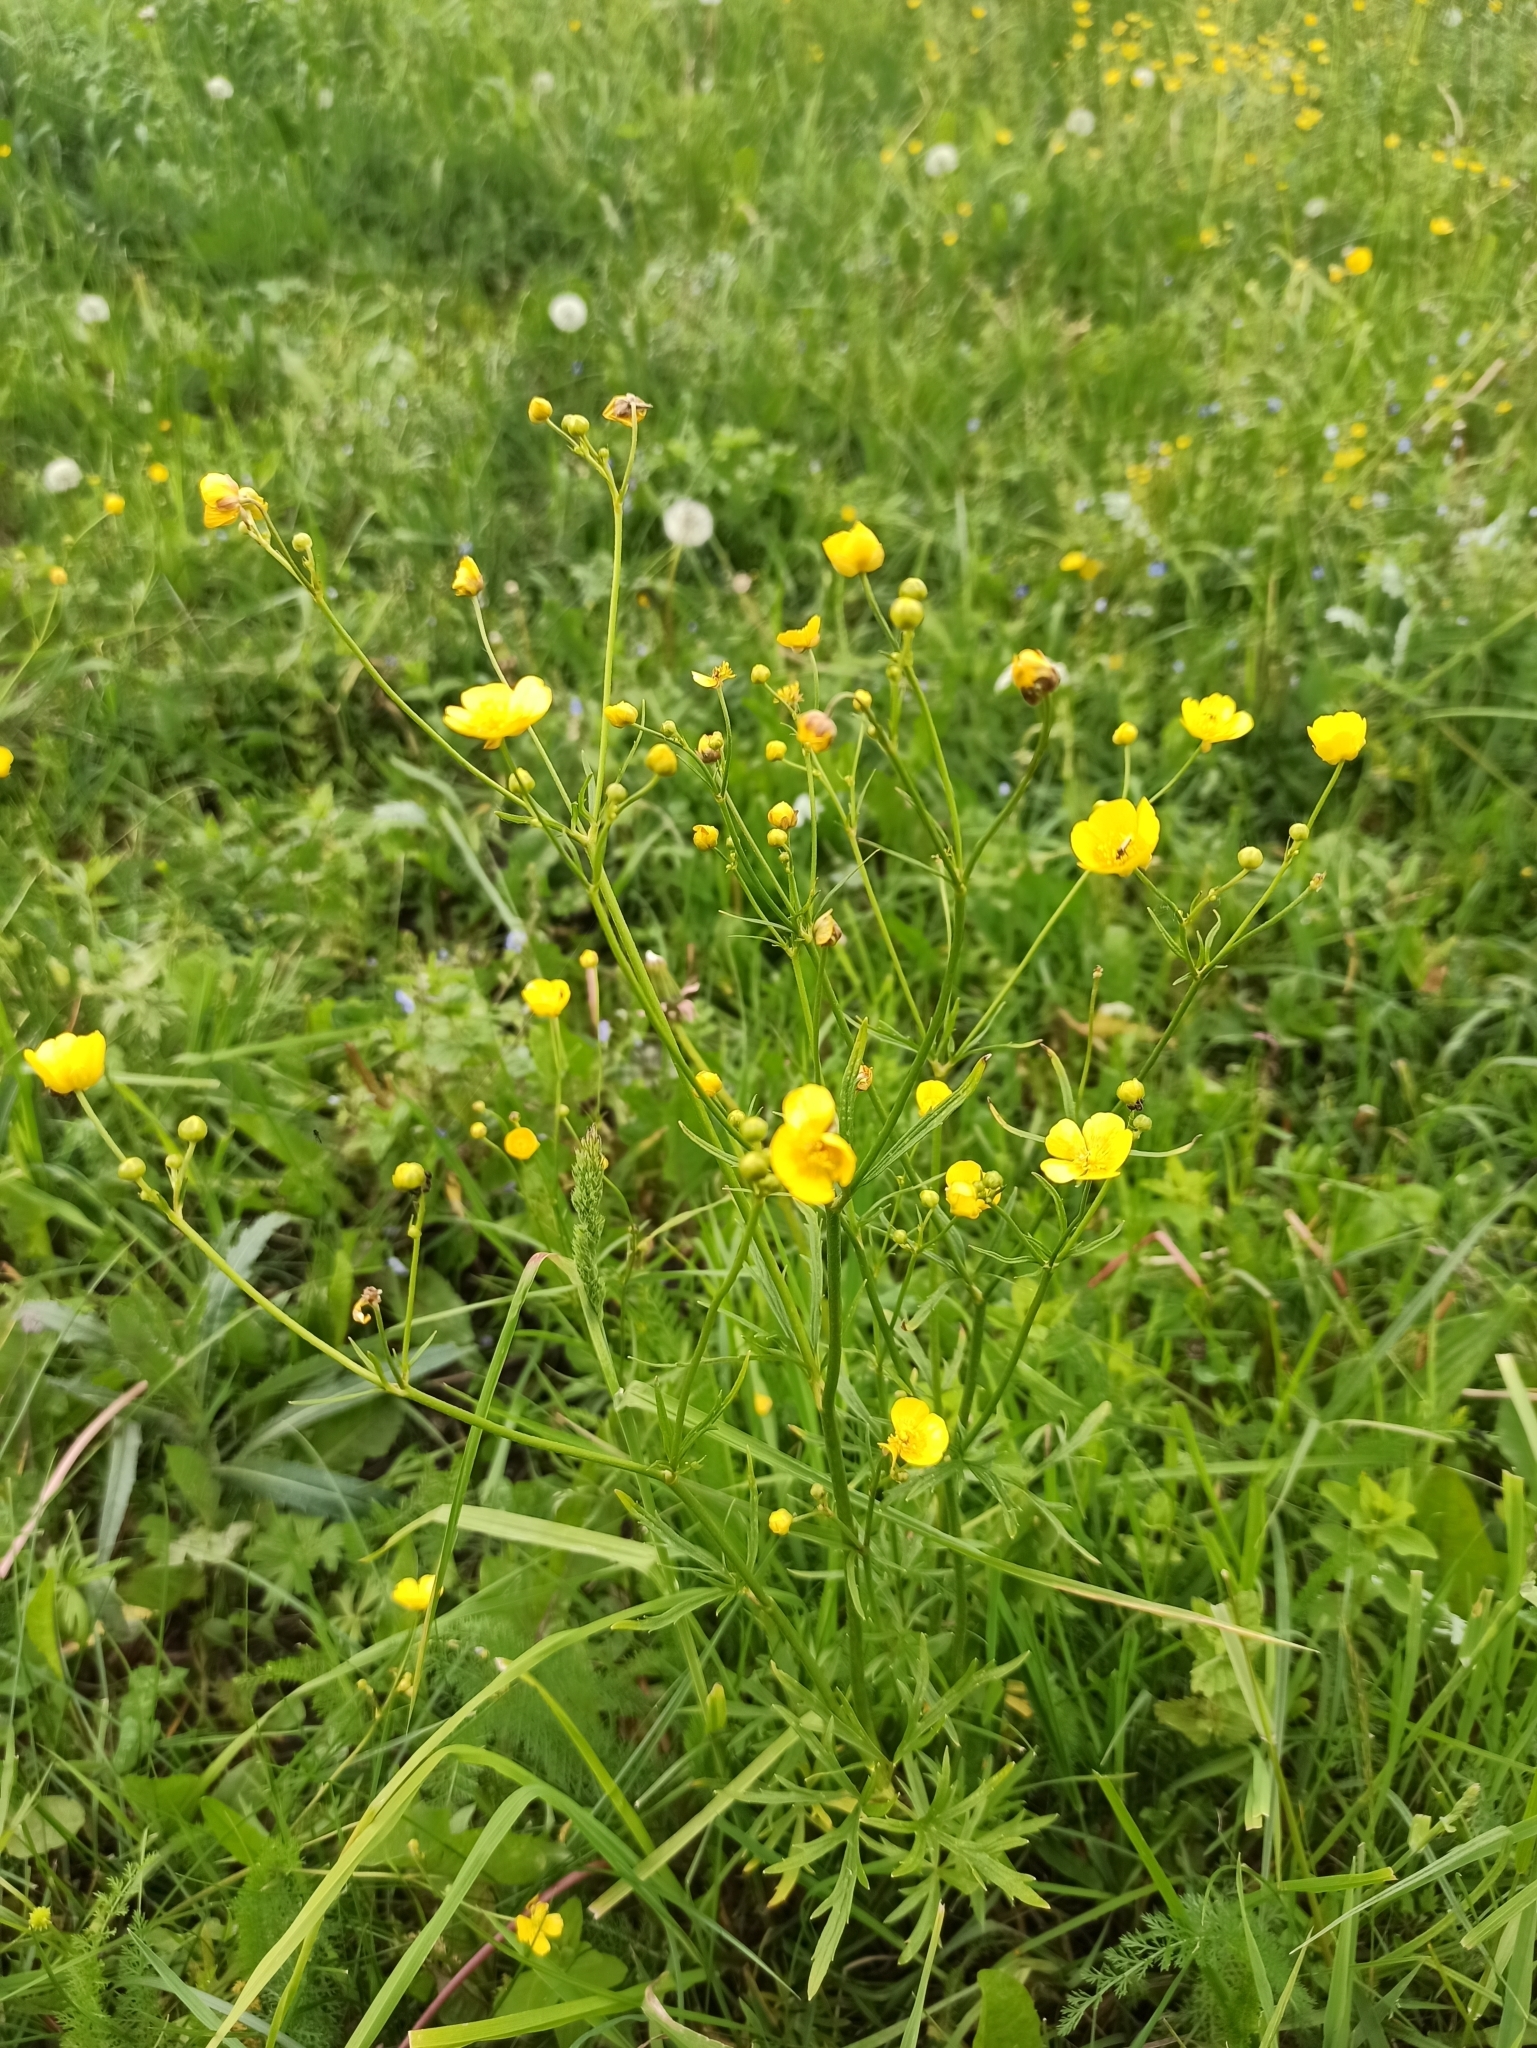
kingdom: Plantae
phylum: Tracheophyta
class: Magnoliopsida
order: Ranunculales
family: Ranunculaceae
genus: Ranunculus
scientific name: Ranunculus acris
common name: Meadow buttercup
